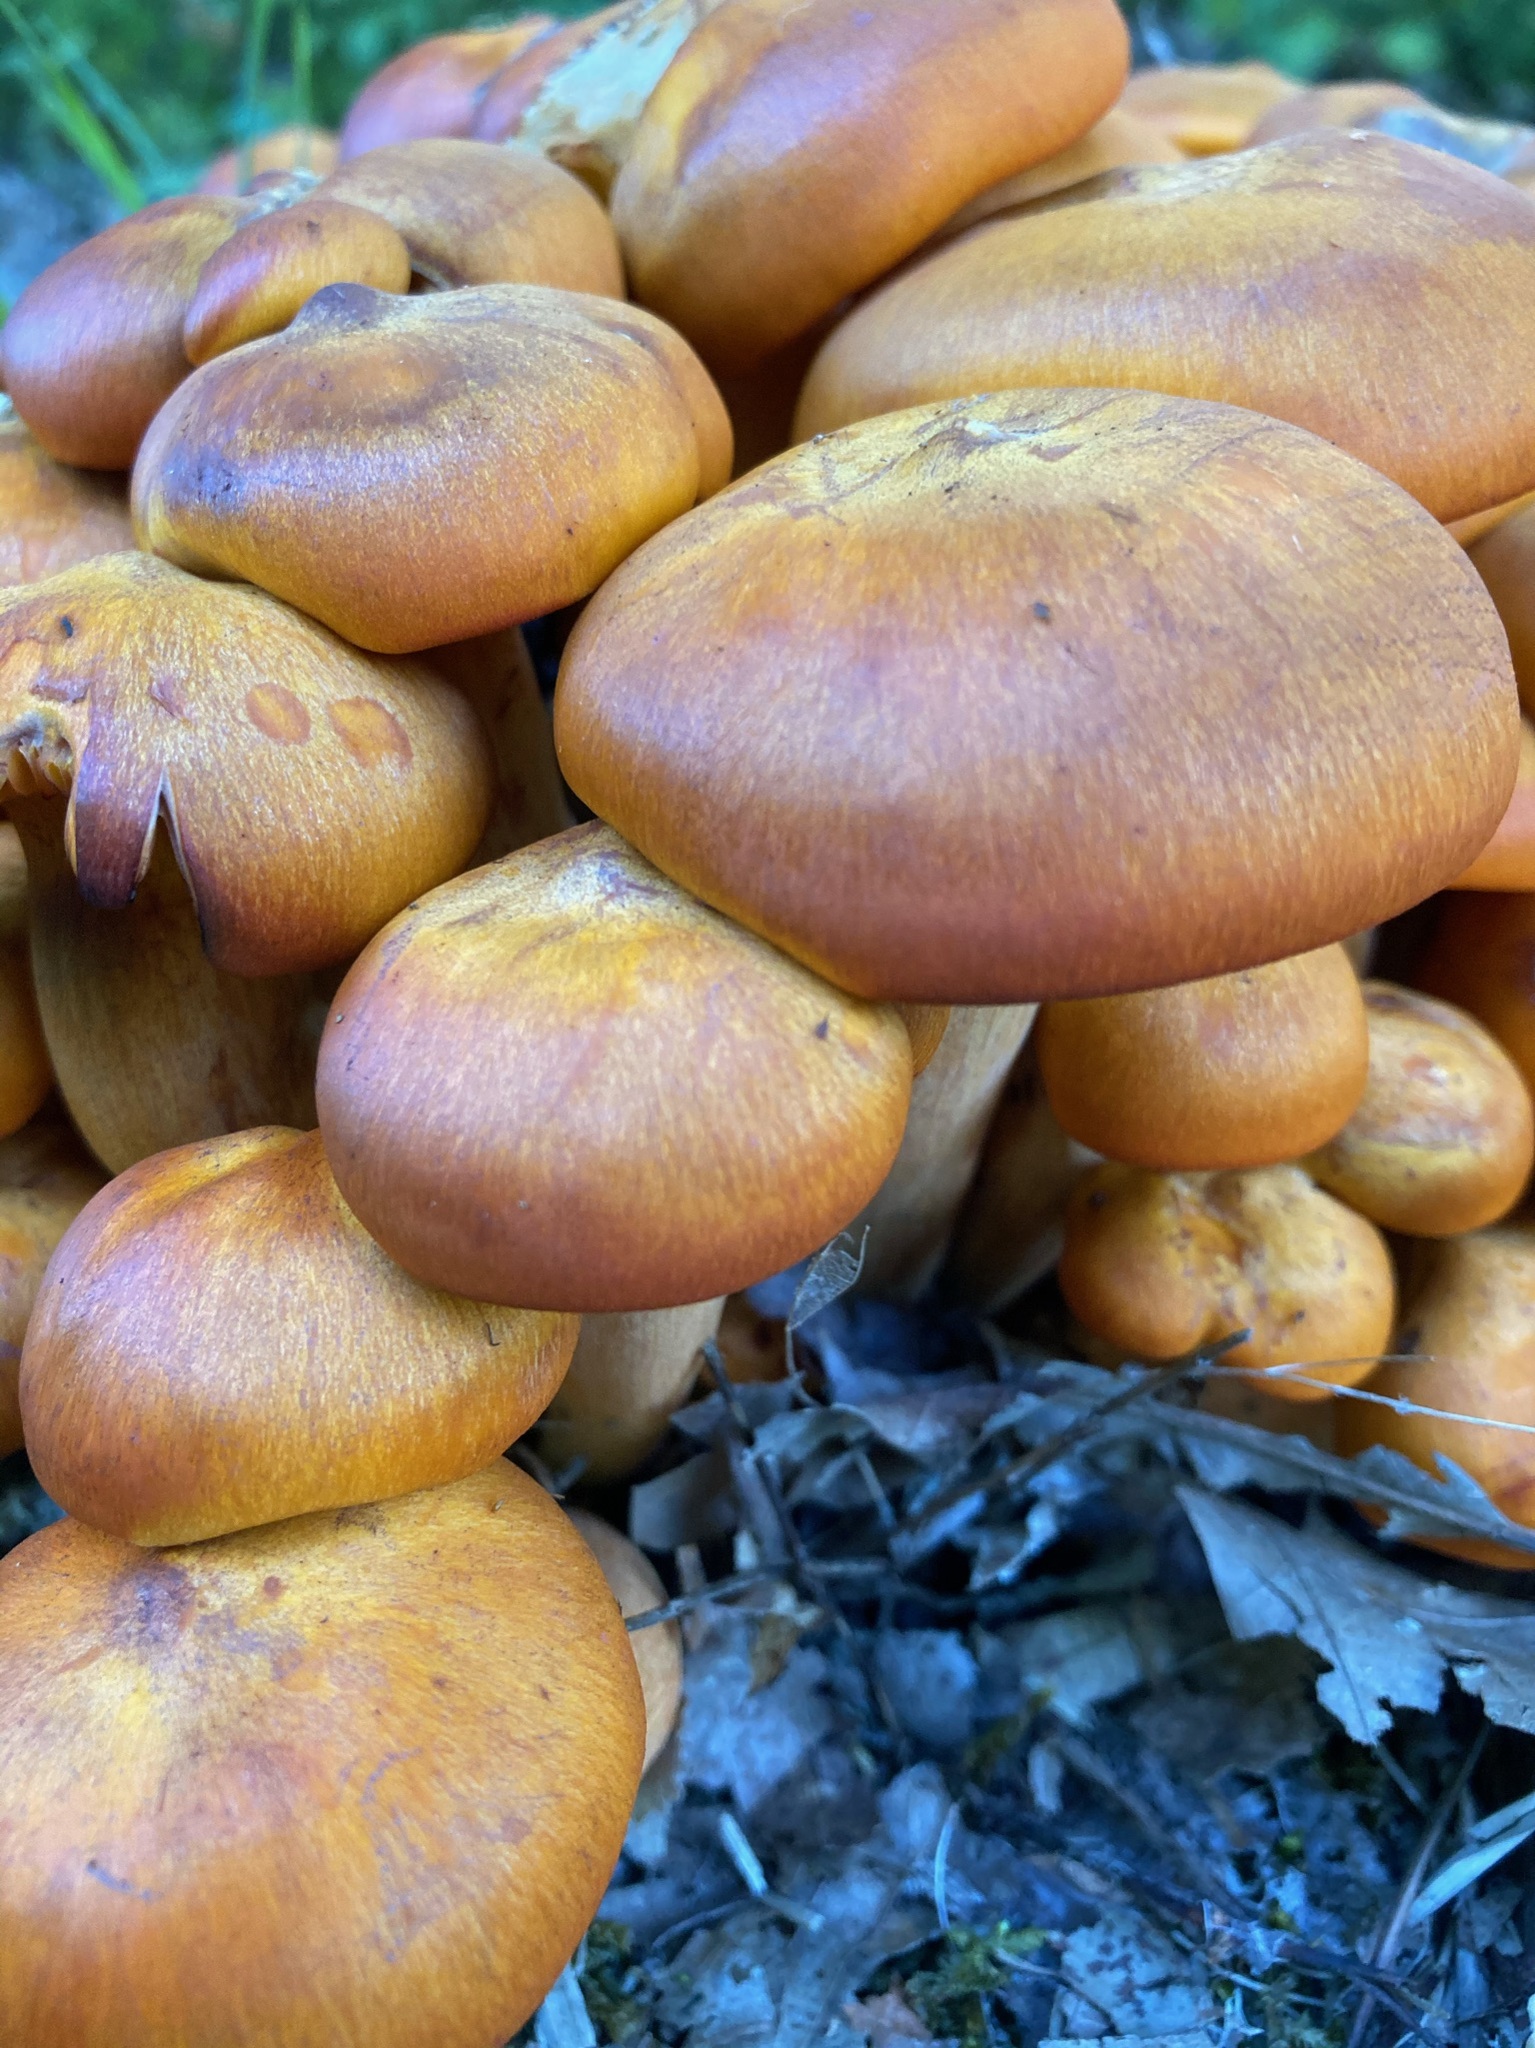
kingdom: Fungi
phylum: Basidiomycota
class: Agaricomycetes
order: Agaricales
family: Omphalotaceae
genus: Omphalotus
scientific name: Omphalotus illudens
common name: Jack o lantern
